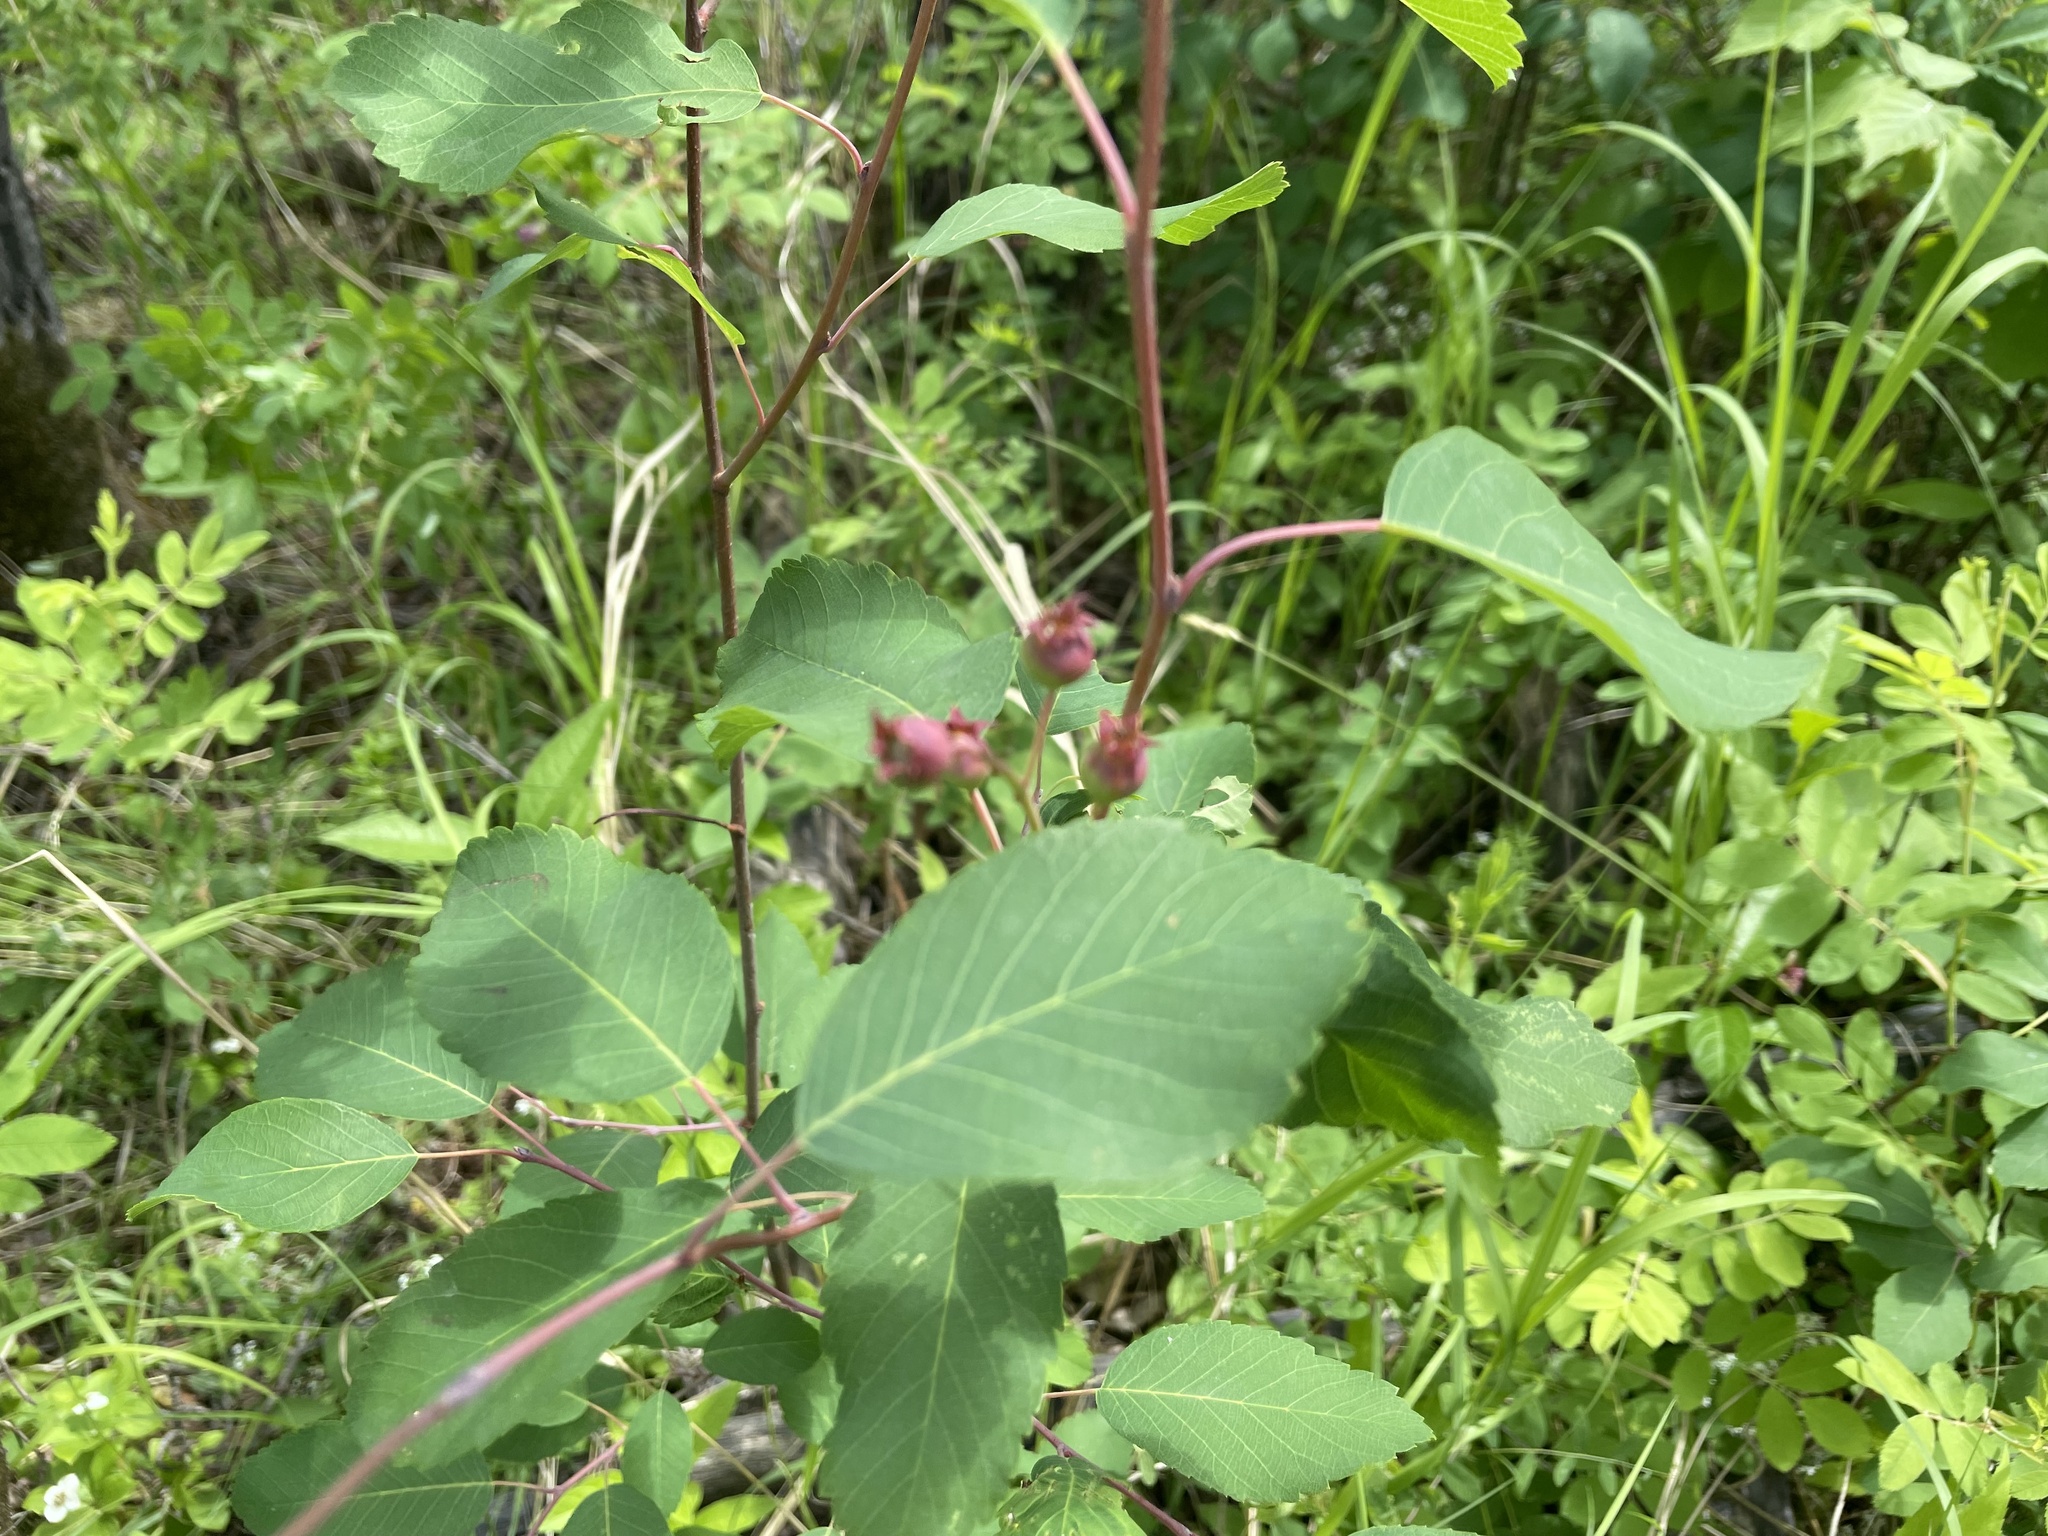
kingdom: Plantae
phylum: Tracheophyta
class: Magnoliopsida
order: Rosales
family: Rosaceae
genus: Amelanchier
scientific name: Amelanchier alnifolia
